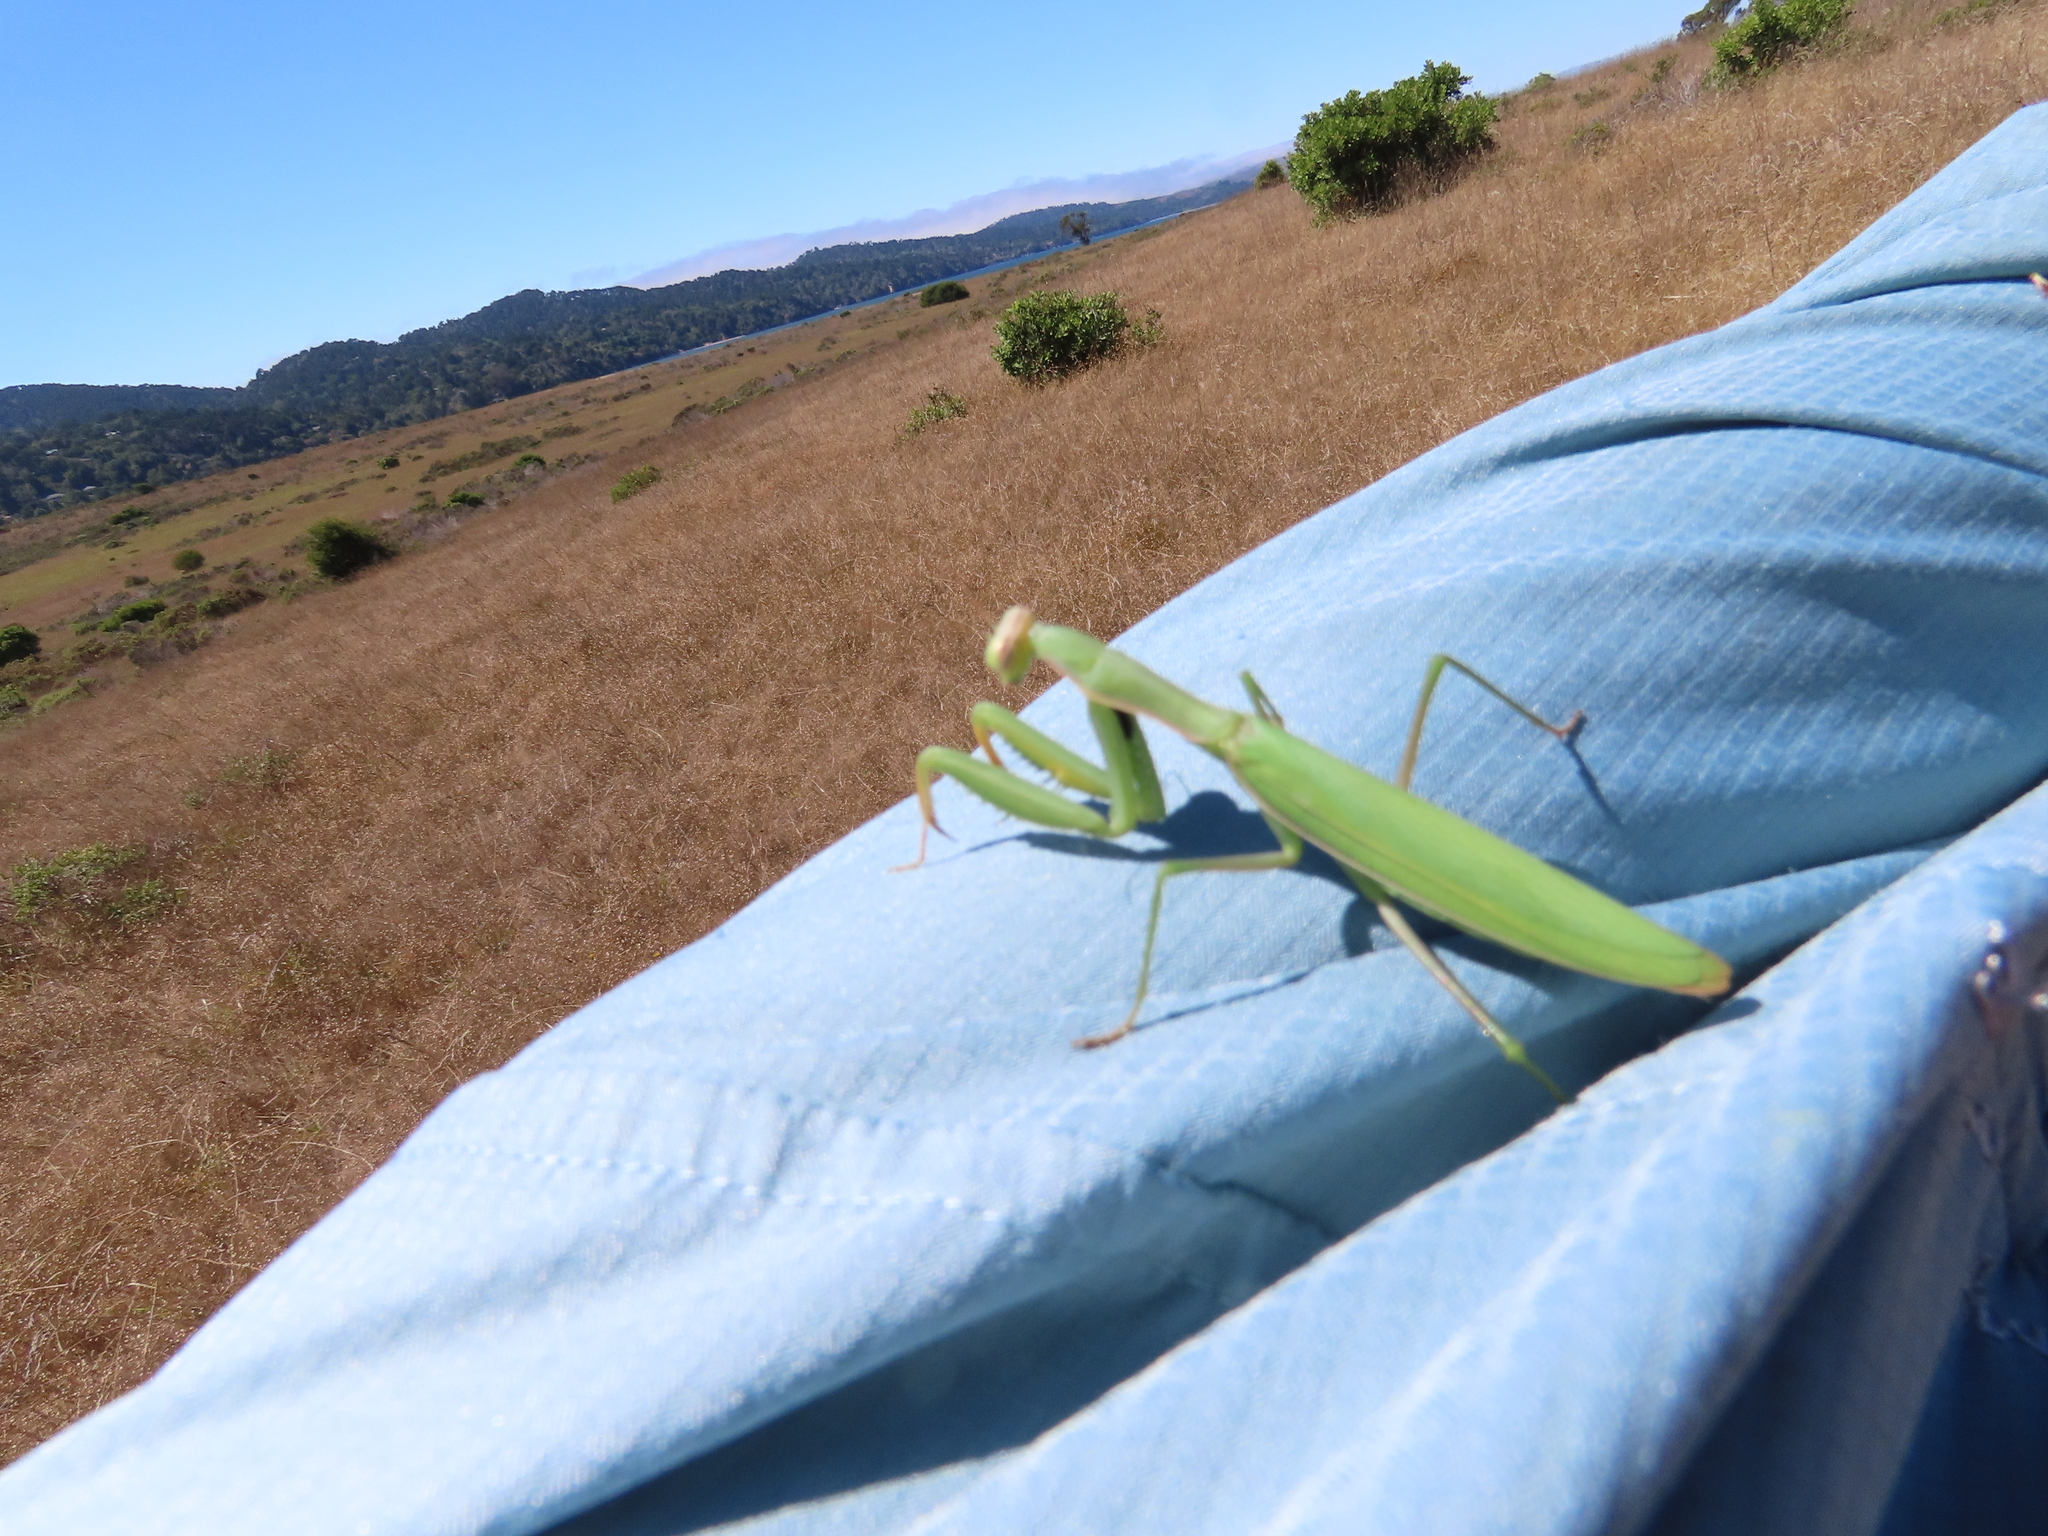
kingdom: Animalia
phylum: Arthropoda
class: Insecta
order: Mantodea
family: Mantidae
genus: Mantis
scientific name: Mantis religiosa
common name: Praying mantis
